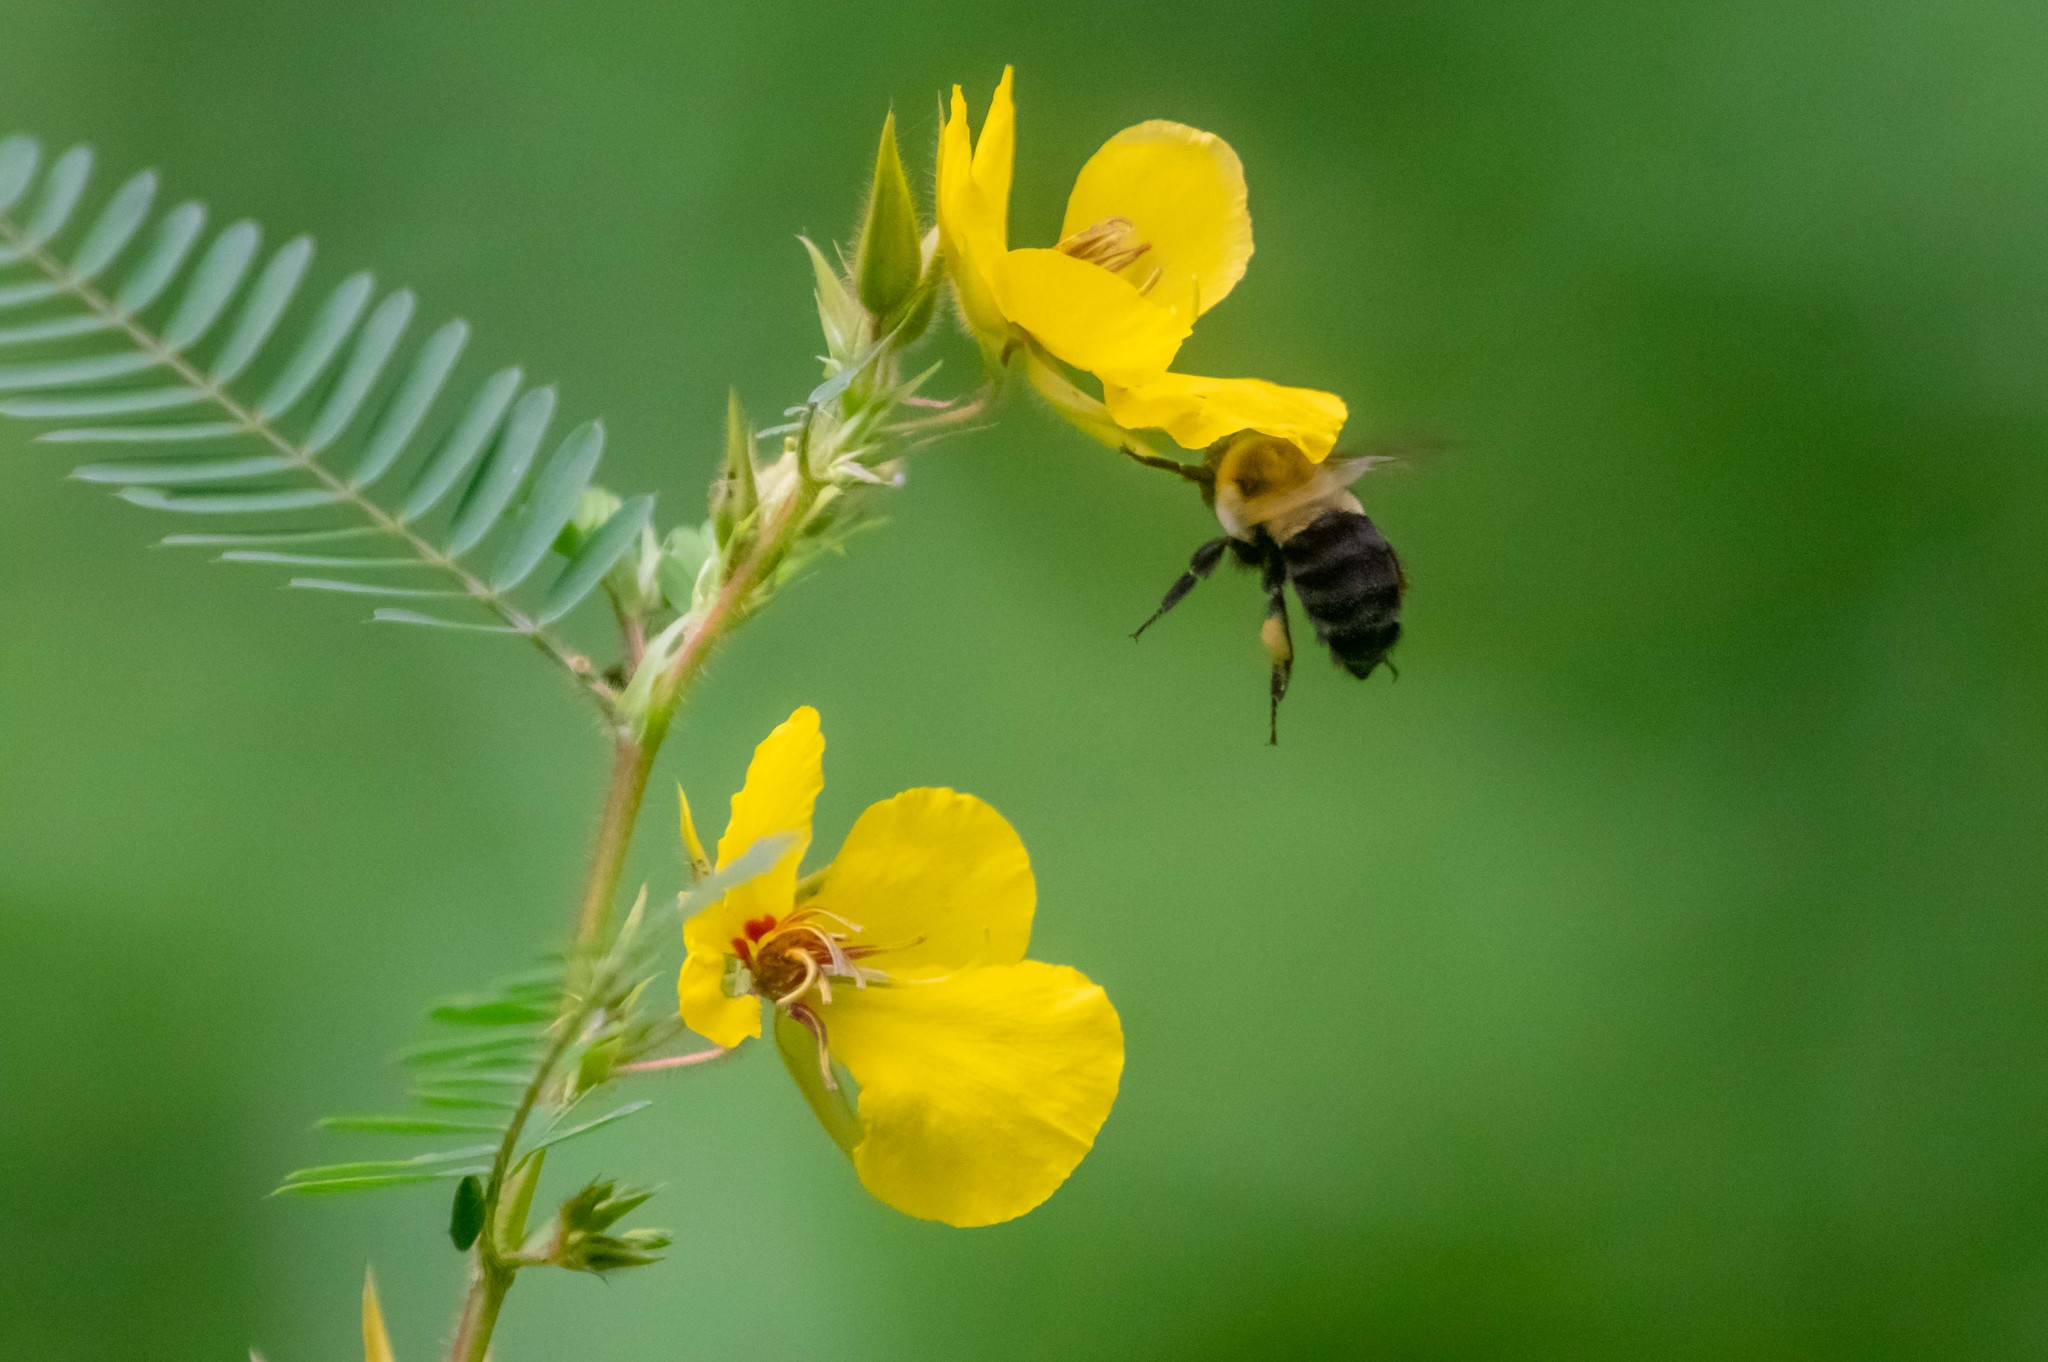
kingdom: Animalia
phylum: Arthropoda
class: Insecta
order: Hymenoptera
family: Apidae
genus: Bombus
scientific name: Bombus impatiens
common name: Common eastern bumble bee
